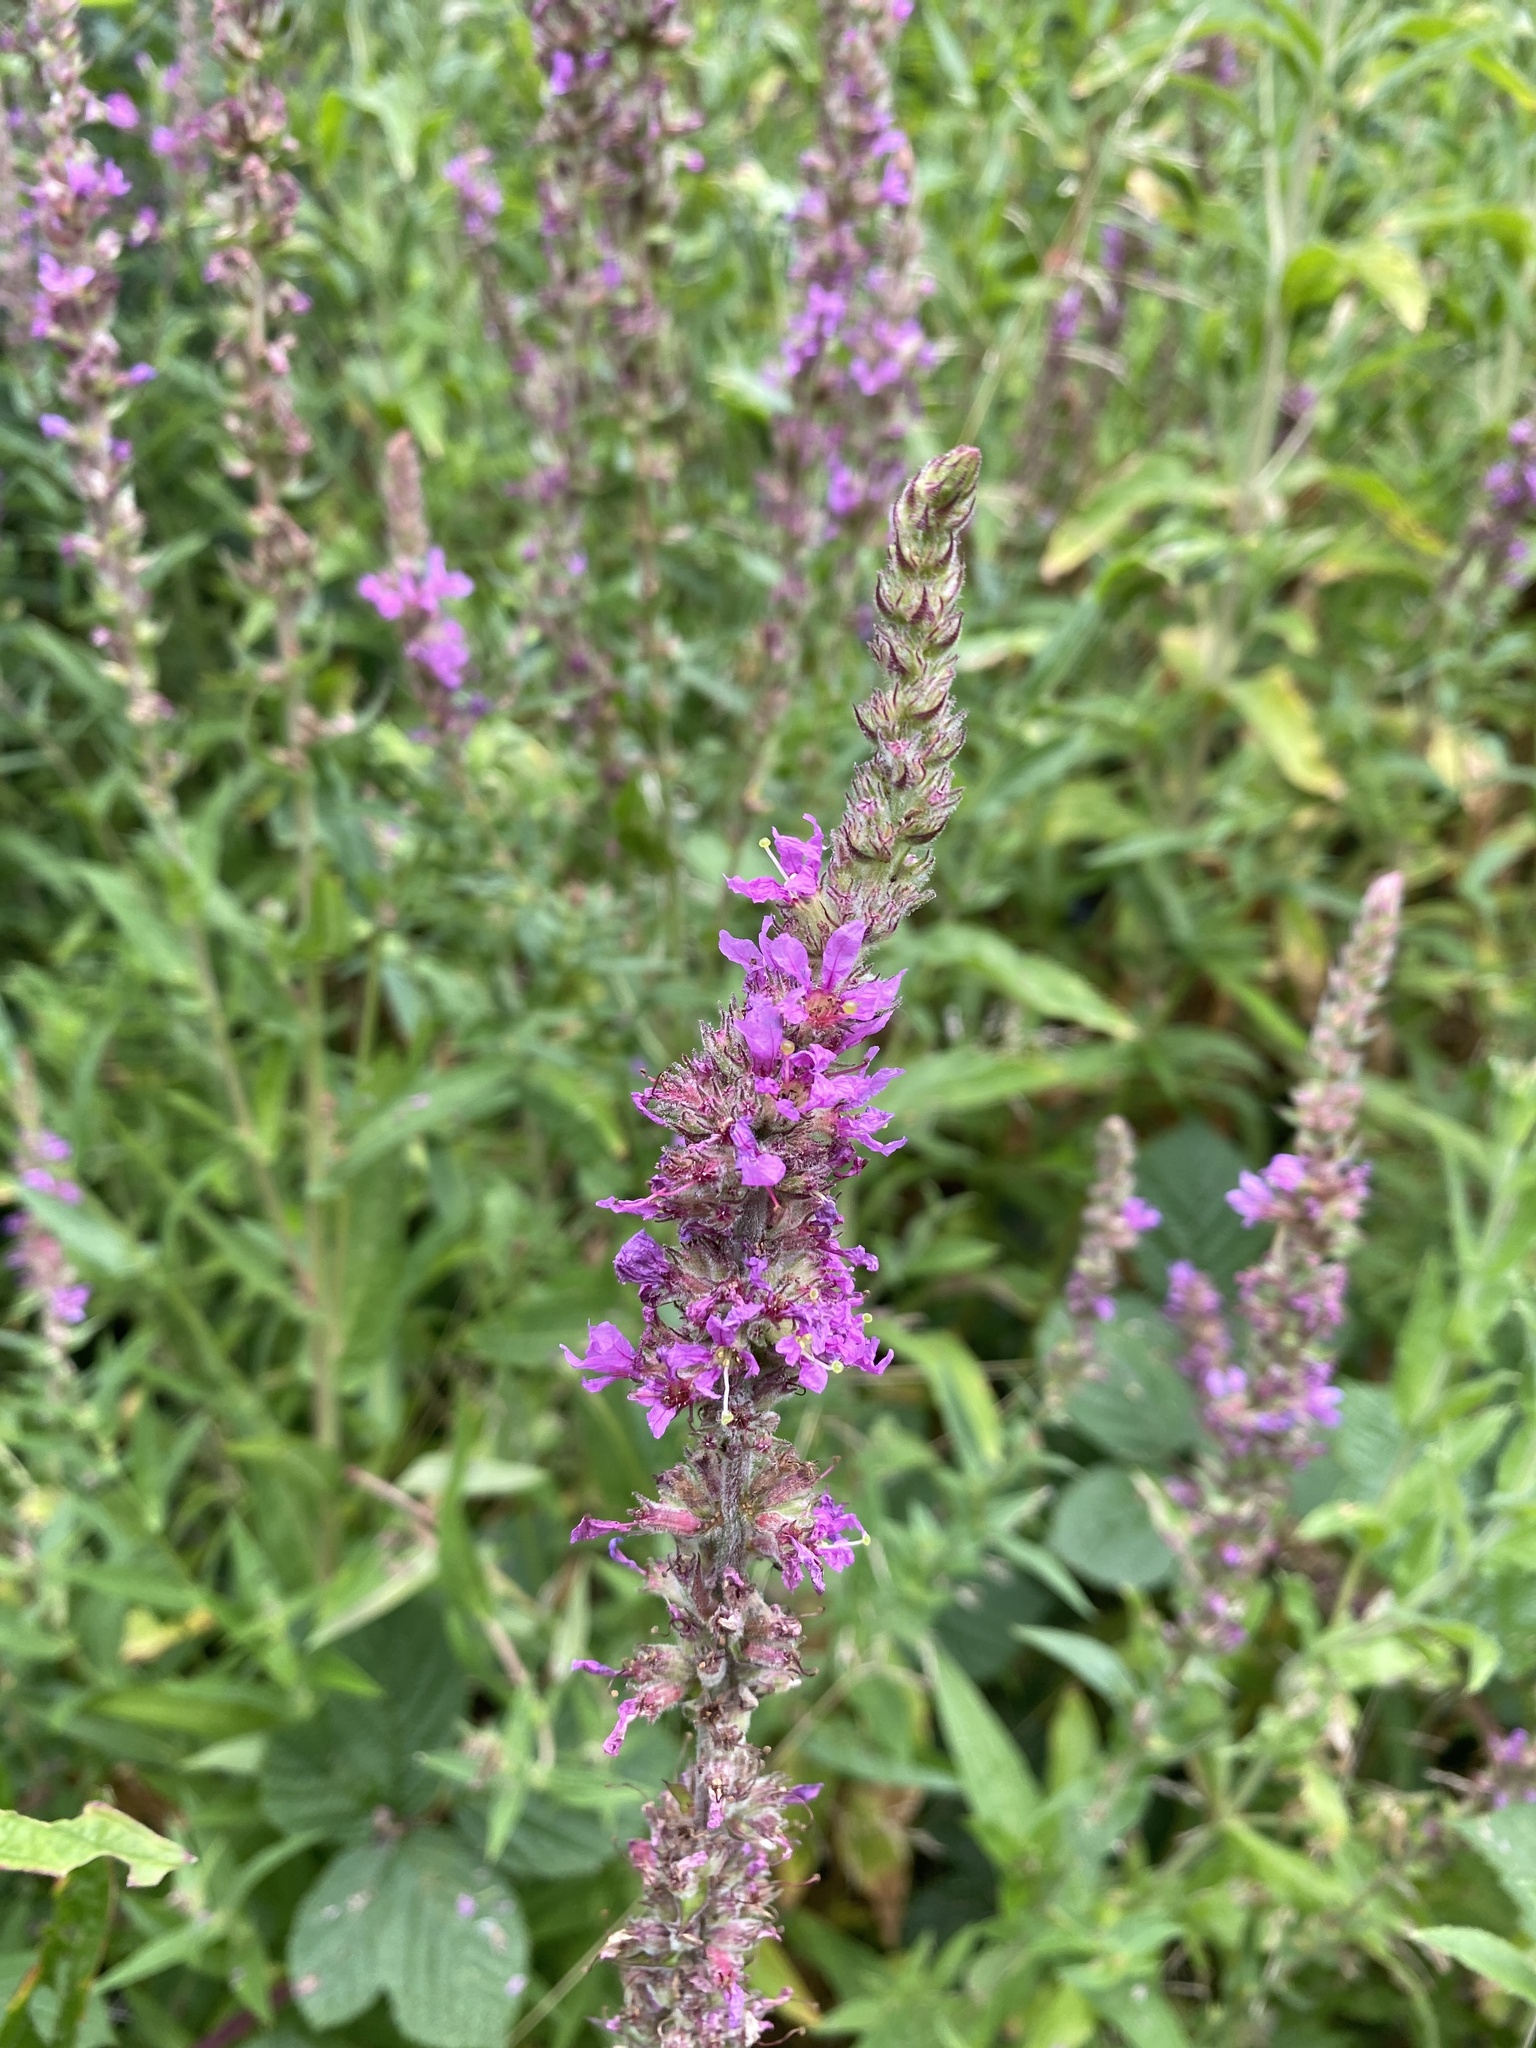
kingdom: Plantae
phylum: Tracheophyta
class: Magnoliopsida
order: Myrtales
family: Lythraceae
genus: Lythrum
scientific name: Lythrum salicaria
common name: Purple loosestrife
